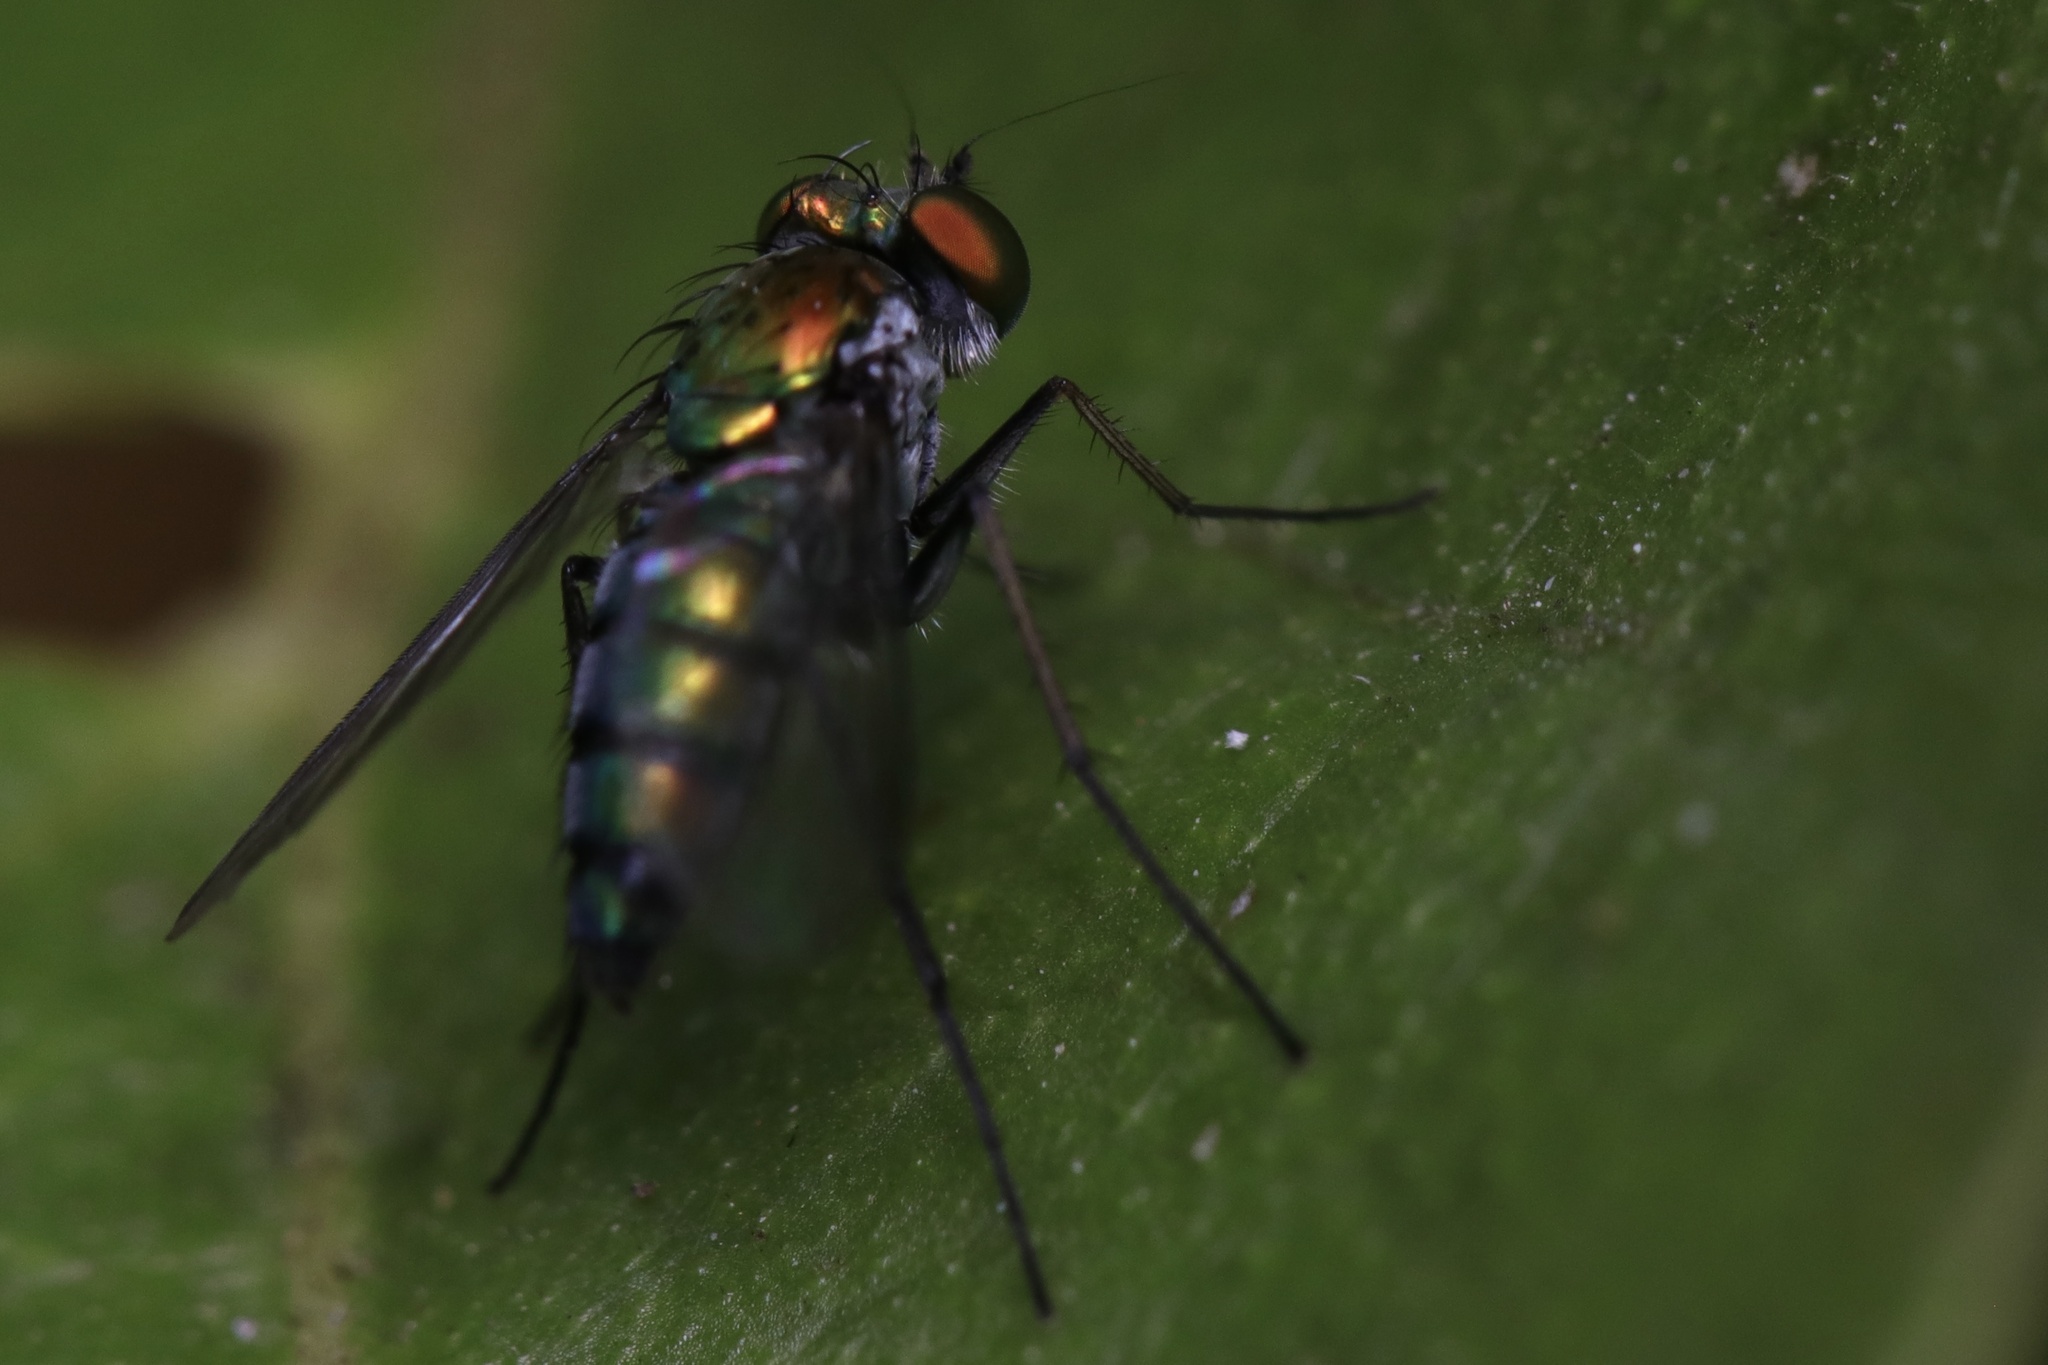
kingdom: Animalia
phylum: Arthropoda
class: Insecta
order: Diptera
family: Dolichopodidae
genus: Condylostylus
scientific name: Condylostylus longicornis
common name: Long-legged fly
